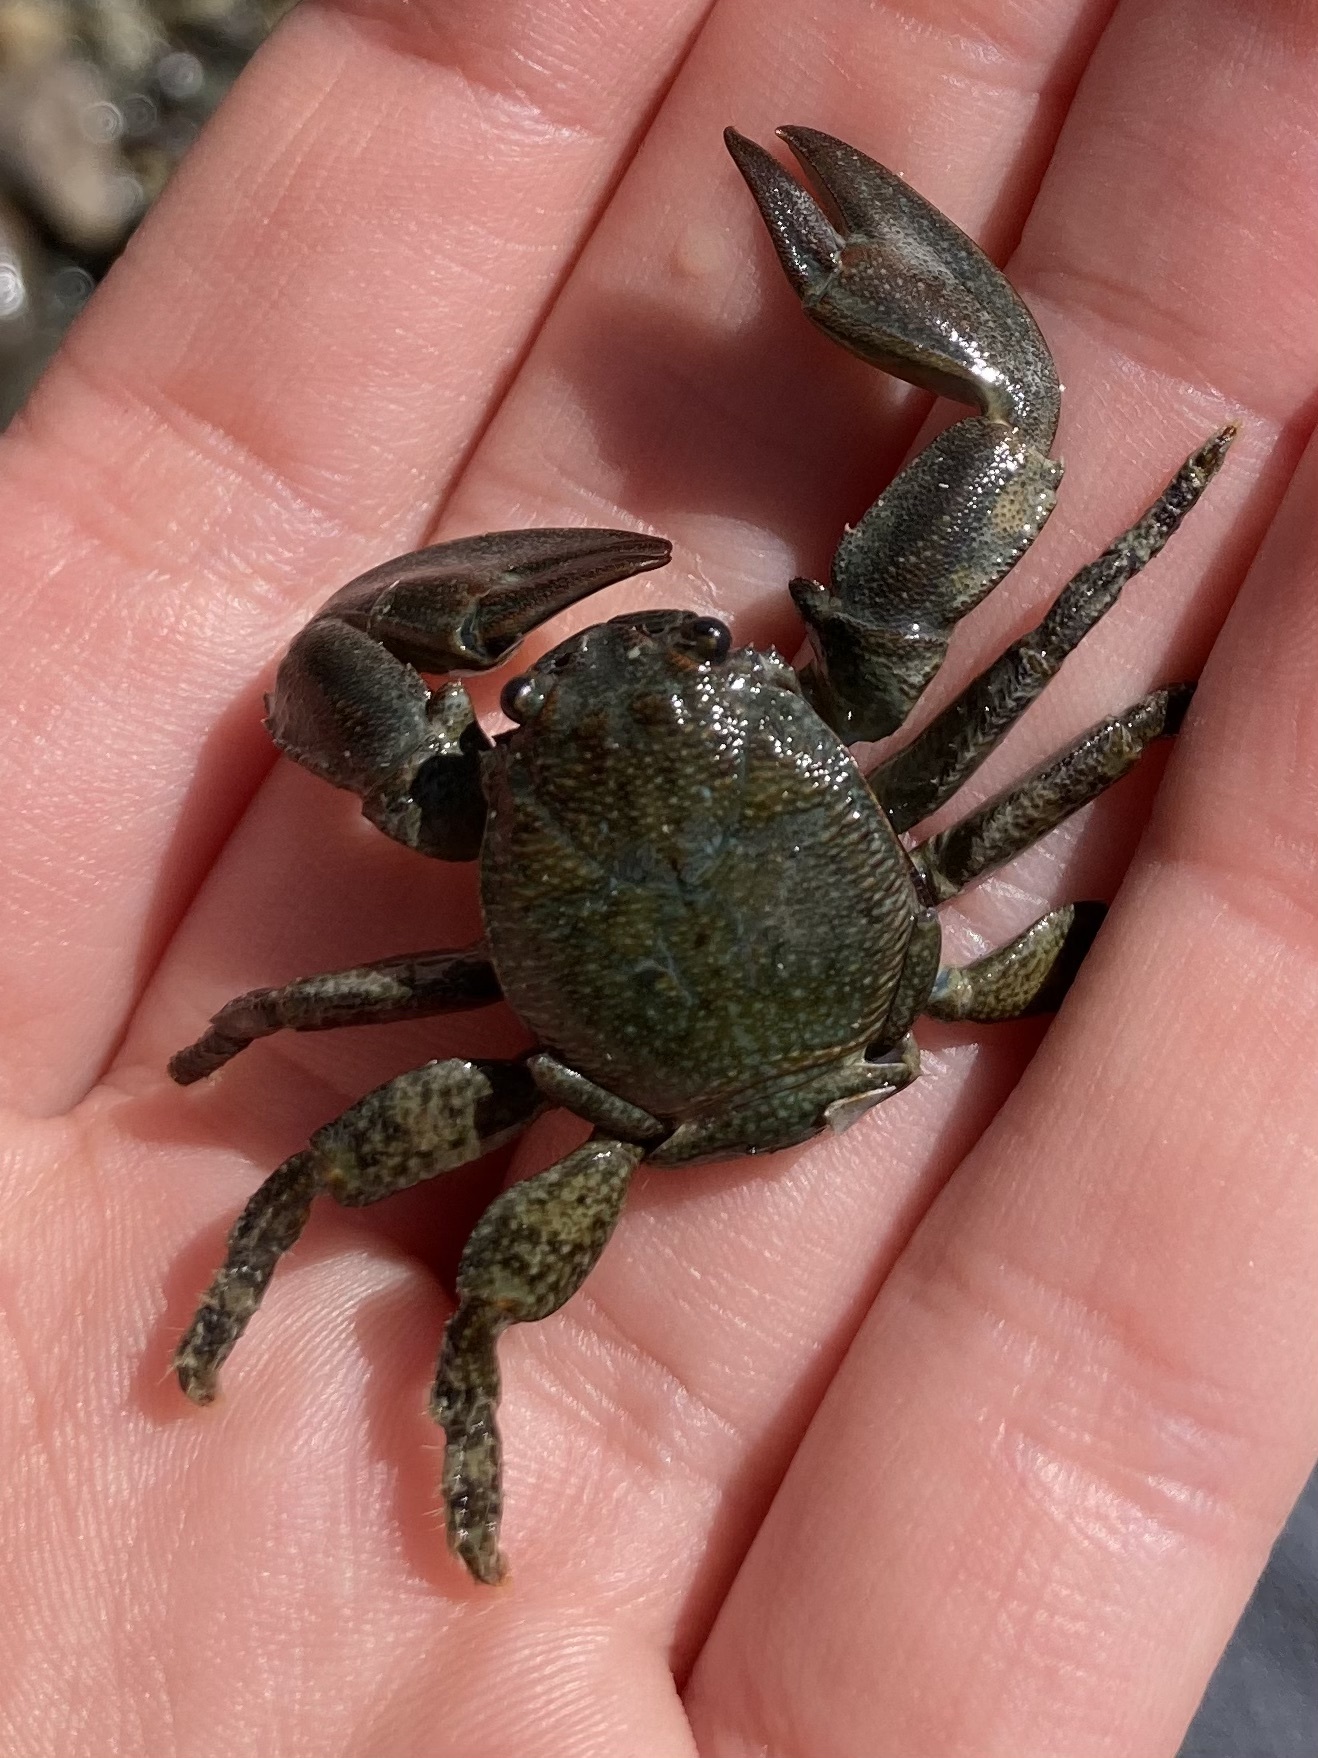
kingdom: Animalia
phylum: Arthropoda
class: Malacostraca
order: Decapoda
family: Porcellanidae
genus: Petrolisthes
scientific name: Petrolisthes elongatus
